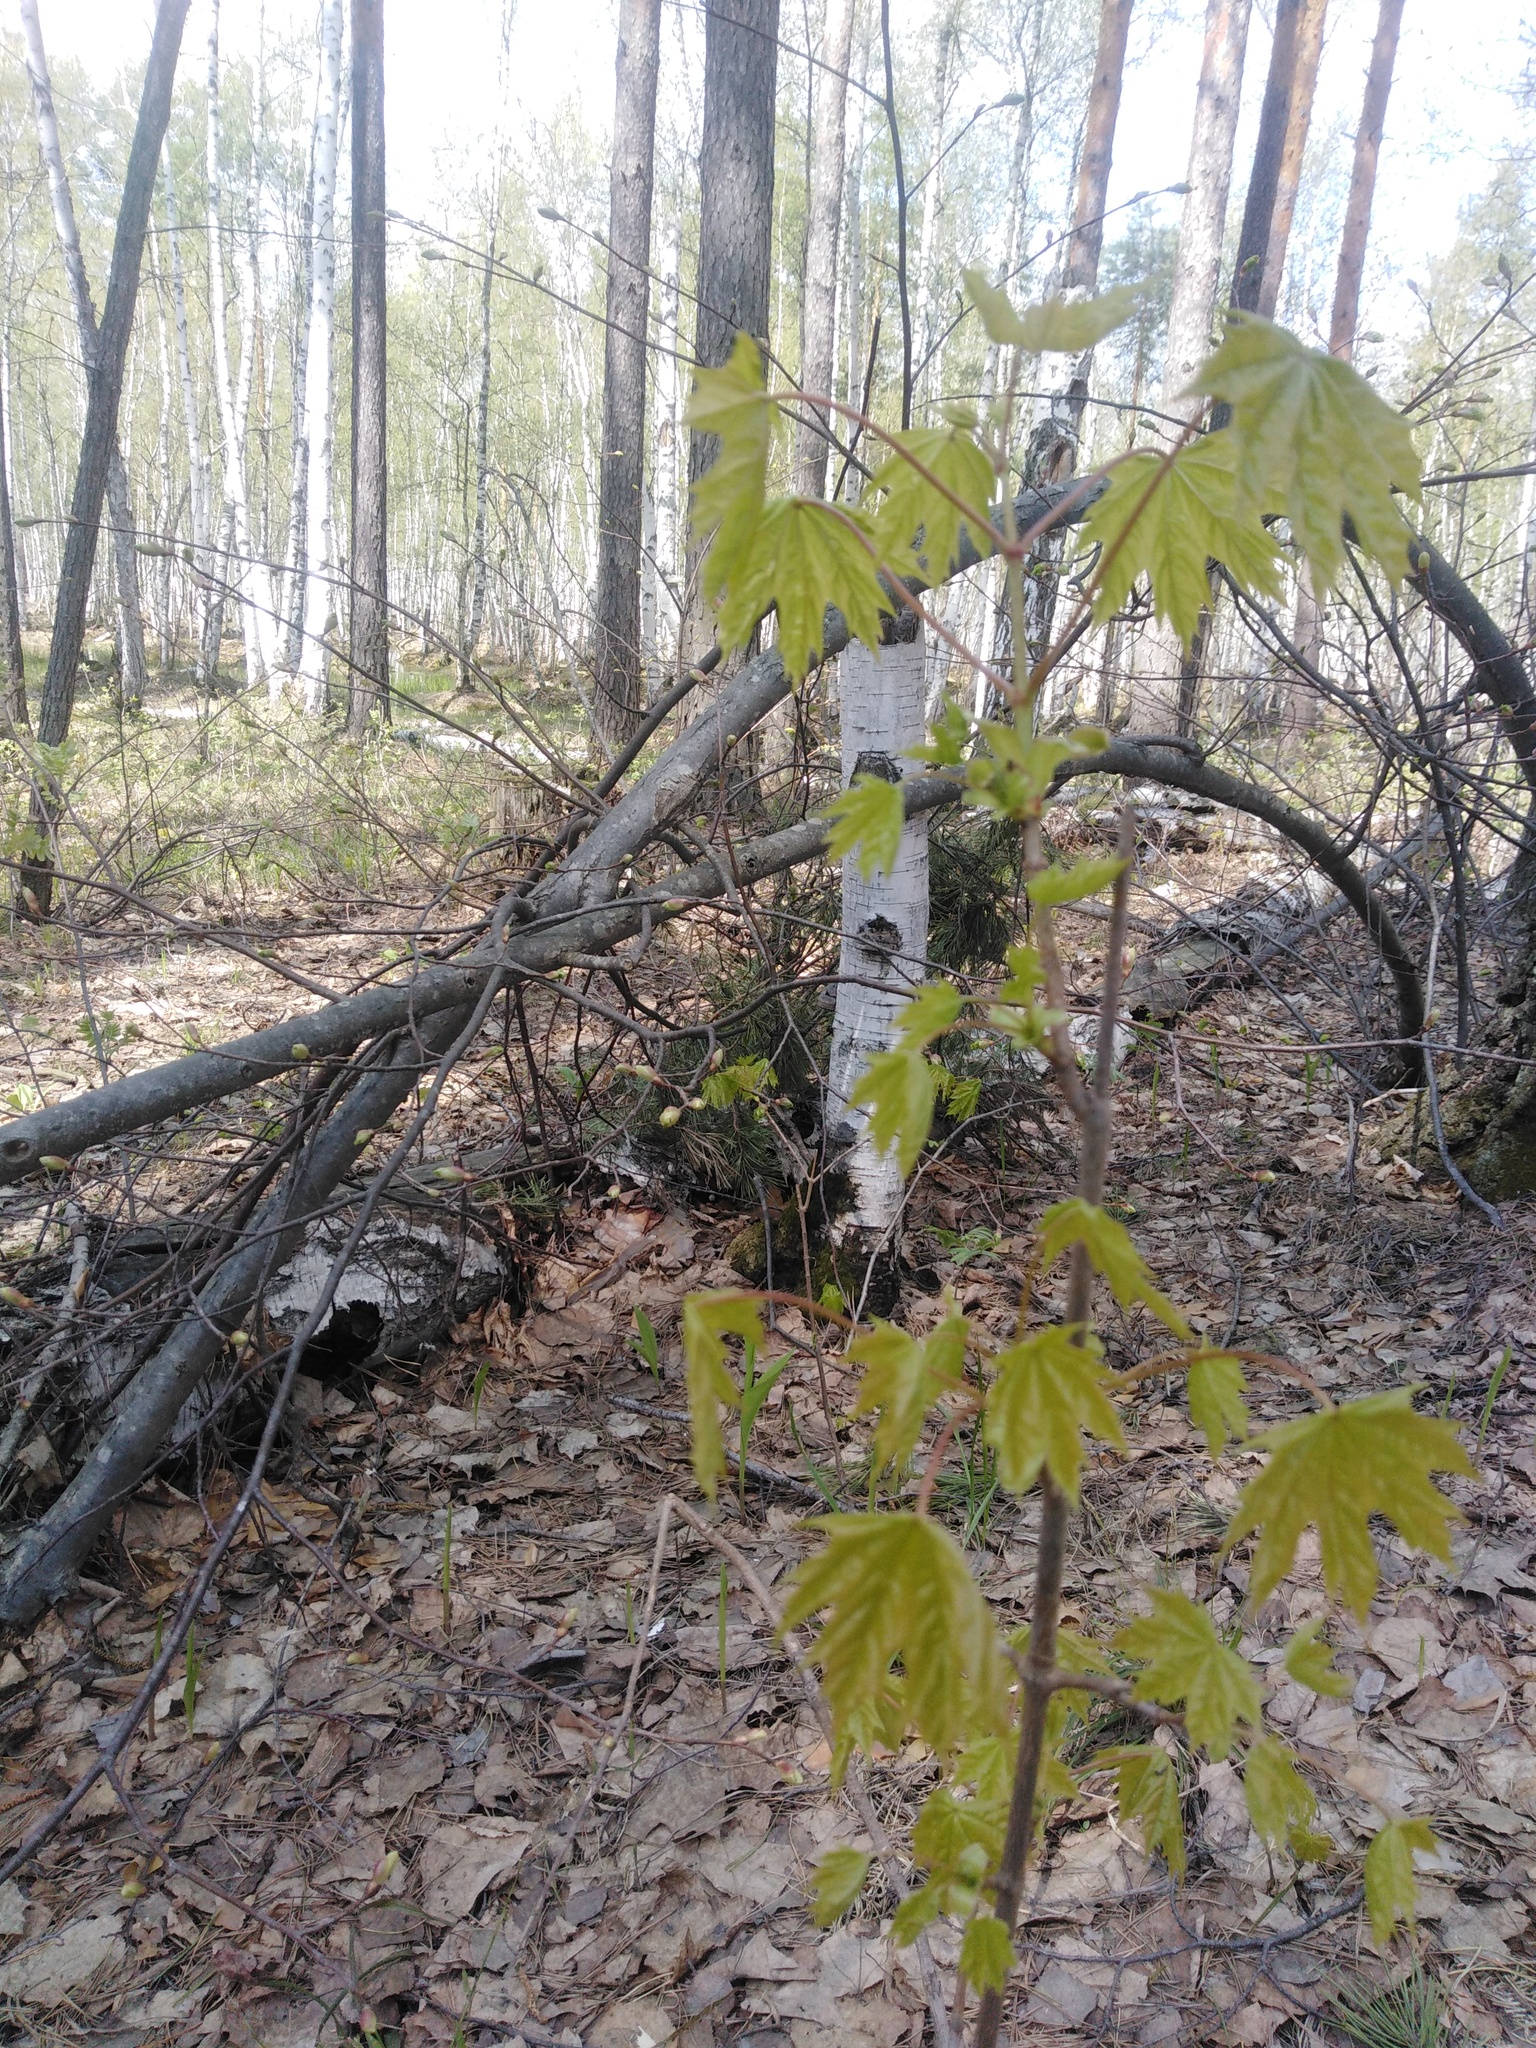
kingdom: Plantae
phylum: Tracheophyta
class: Magnoliopsida
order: Sapindales
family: Sapindaceae
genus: Acer
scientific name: Acer platanoides
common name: Norway maple
